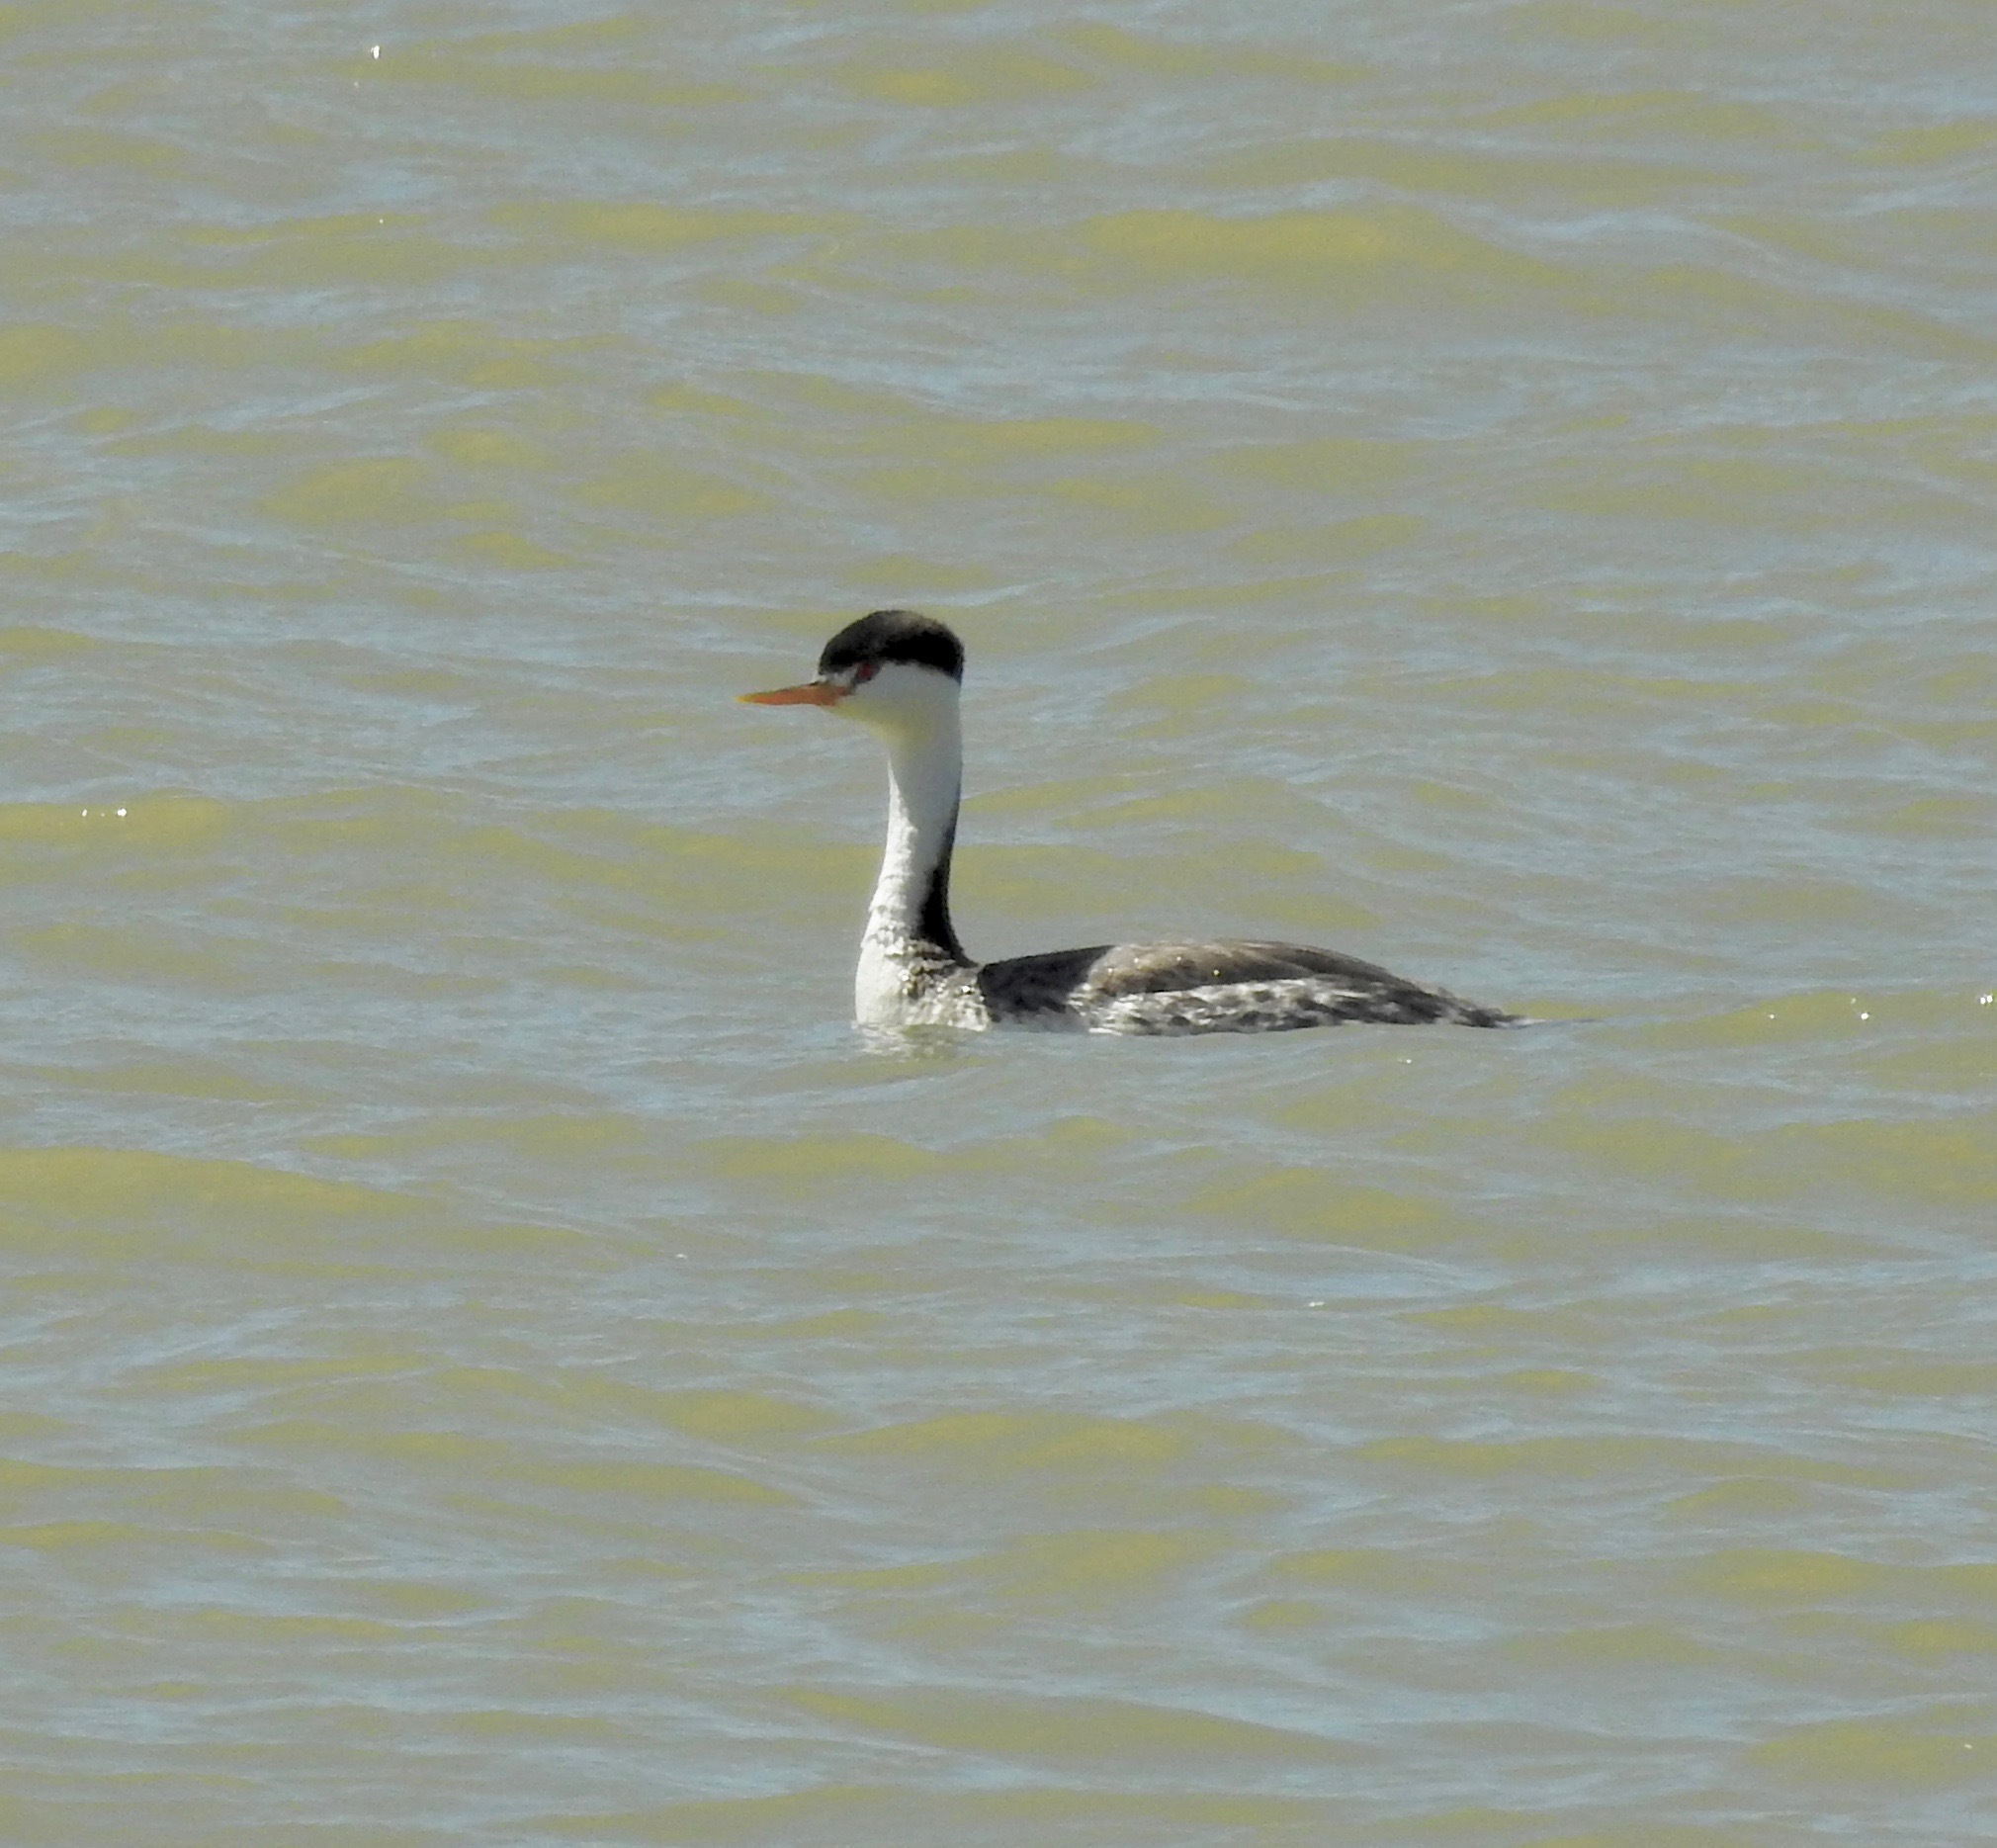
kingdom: Animalia
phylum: Chordata
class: Aves
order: Podicipediformes
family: Podicipedidae
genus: Aechmophorus
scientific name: Aechmophorus clarkii
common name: Clark's grebe
